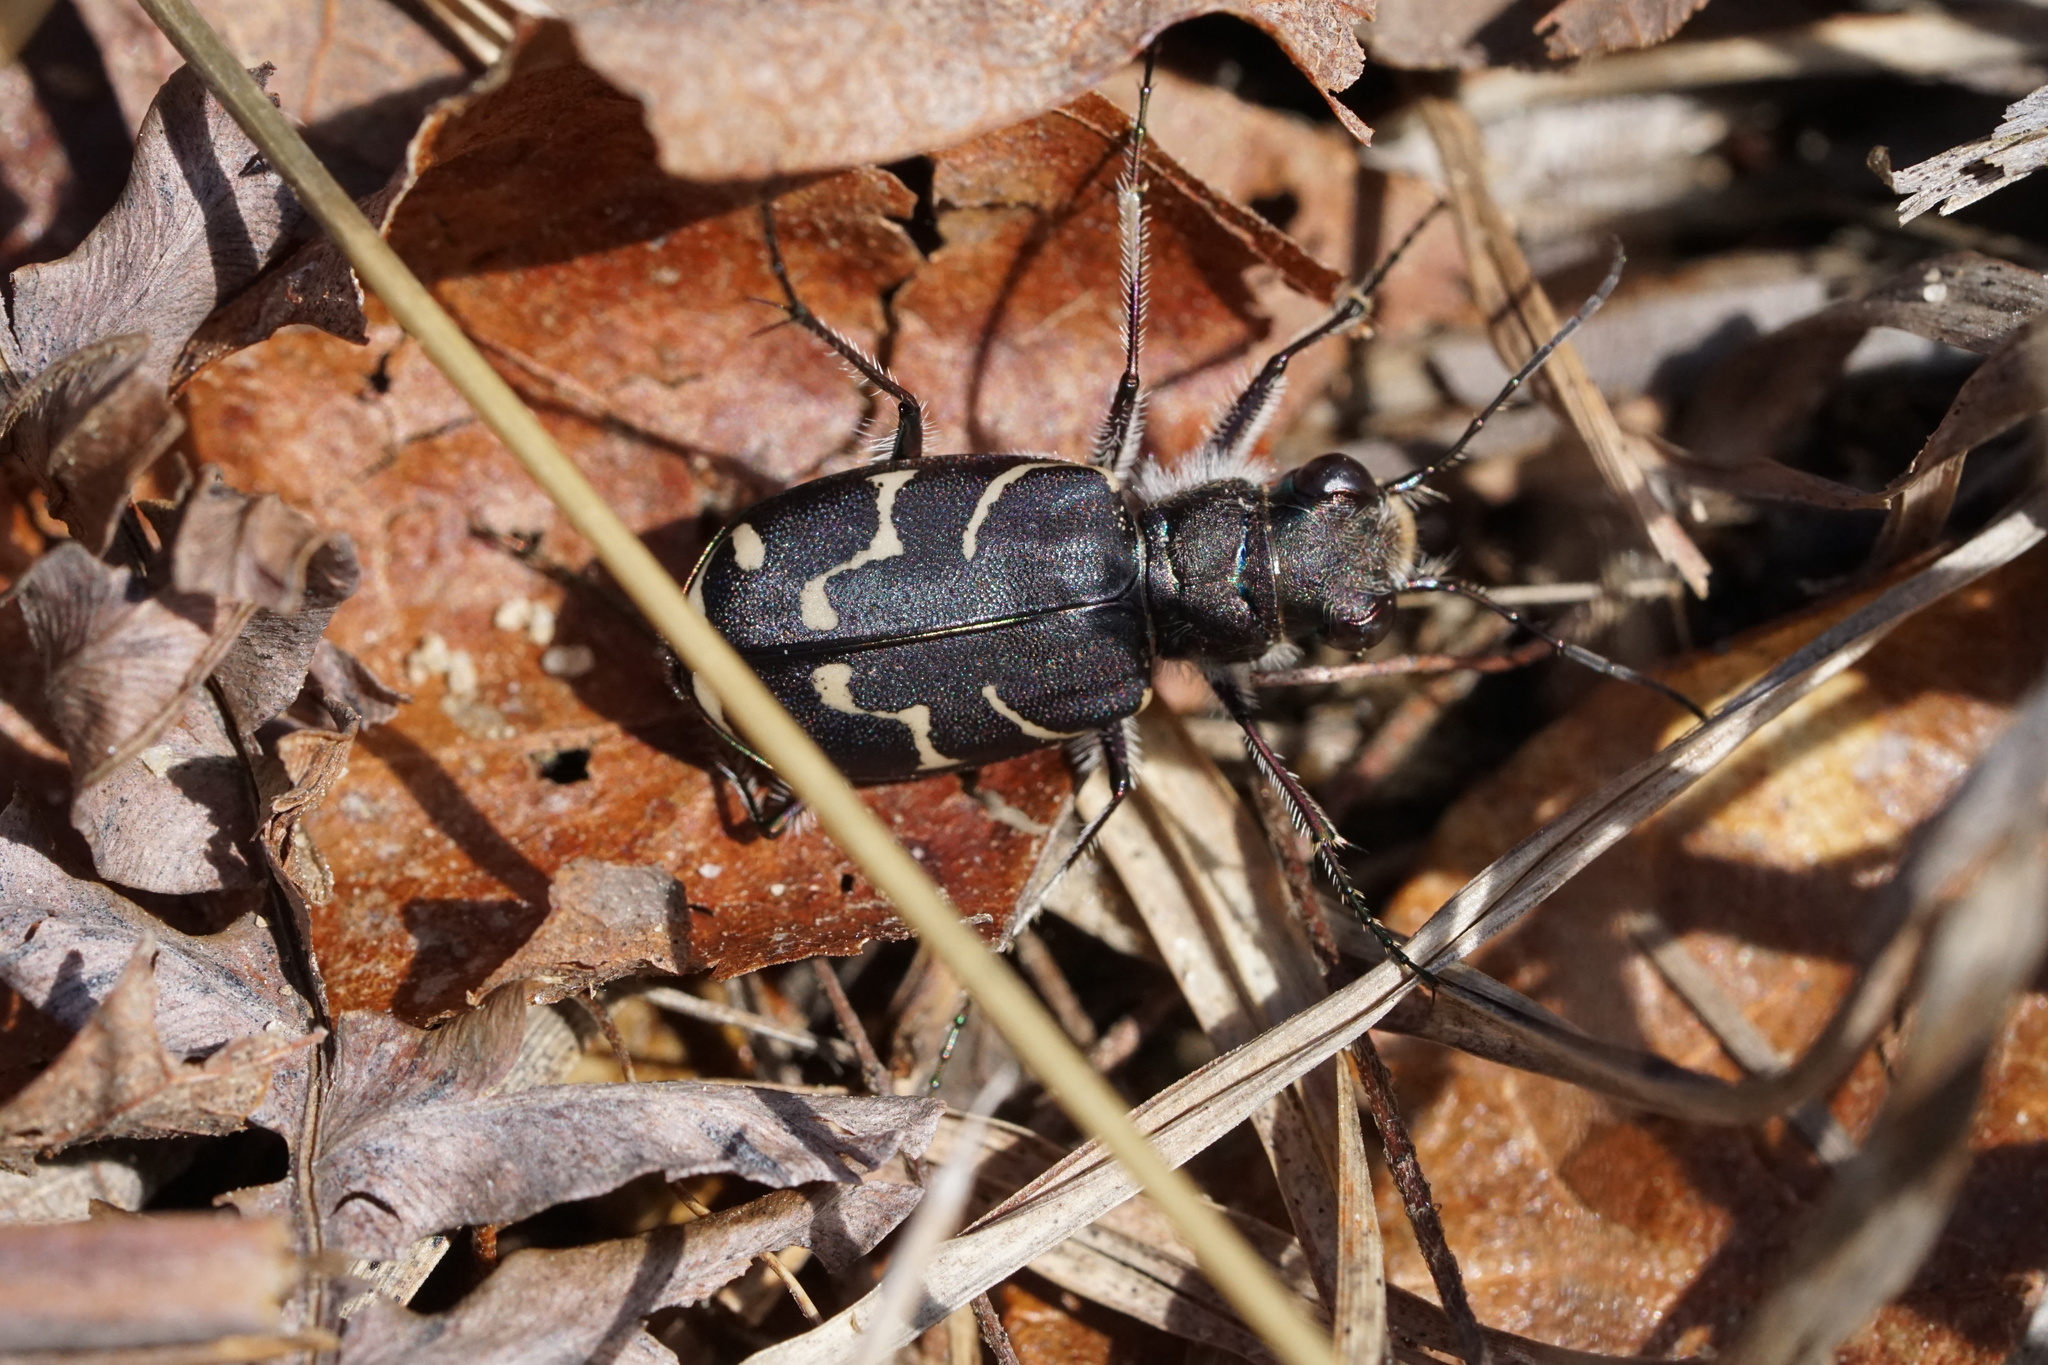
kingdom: Animalia
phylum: Arthropoda
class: Insecta
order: Coleoptera
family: Carabidae
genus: Cicindela
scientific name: Cicindela tranquebarica
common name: Oblique-lined tiger beetle
